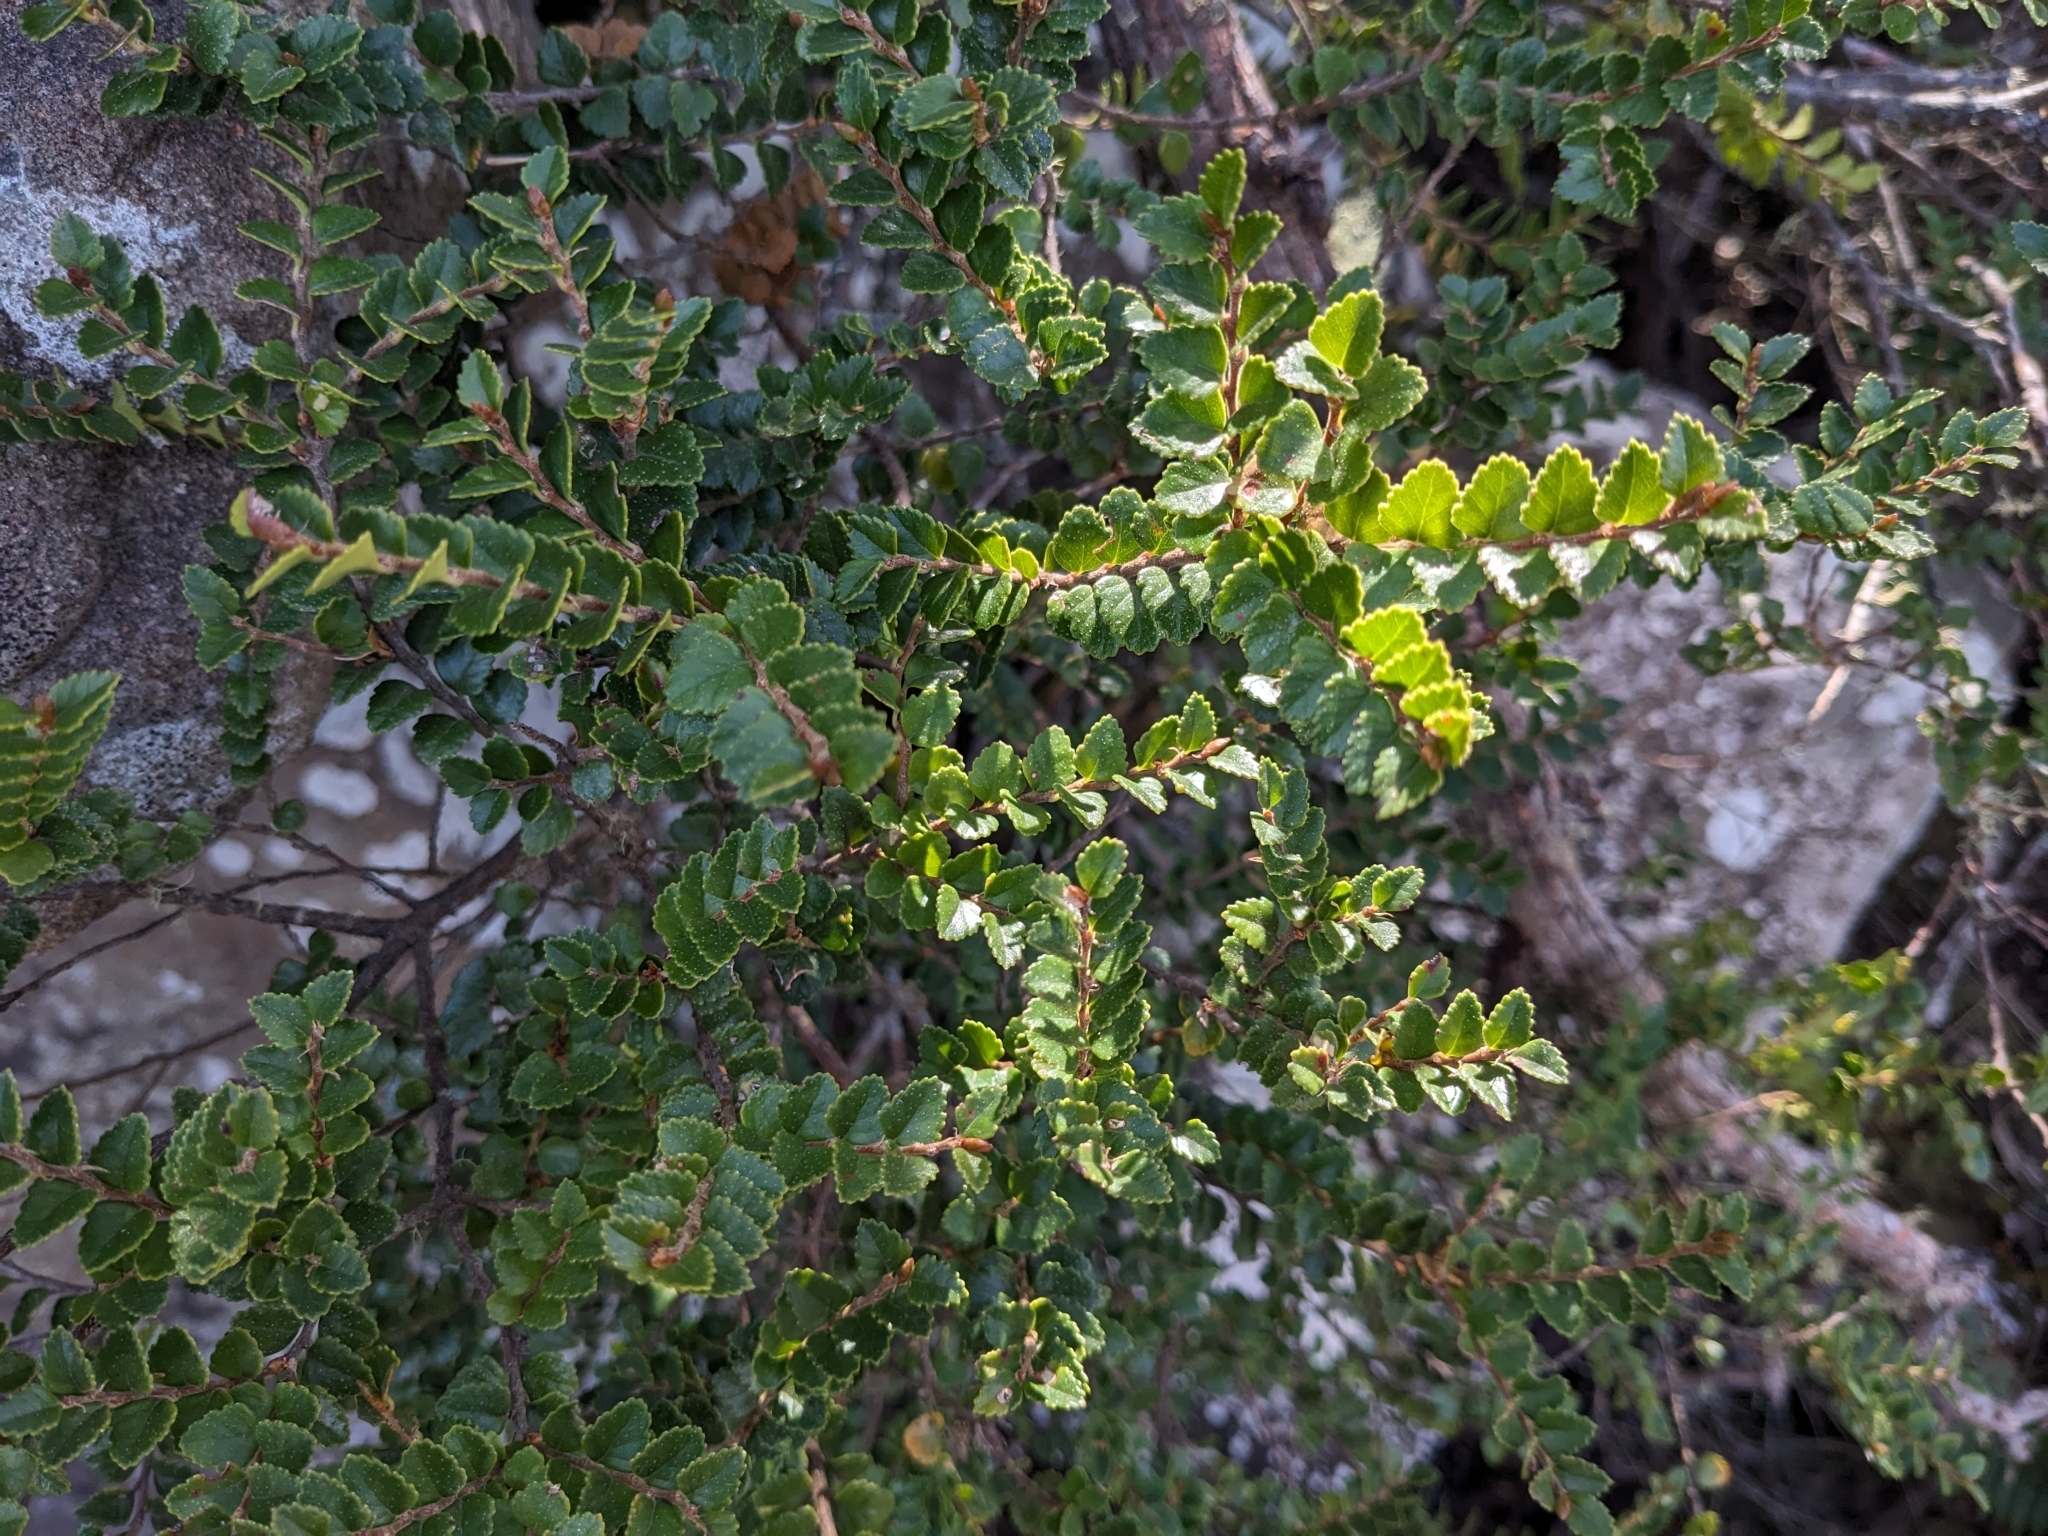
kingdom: Plantae
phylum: Tracheophyta
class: Magnoliopsida
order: Fagales
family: Nothofagaceae
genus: Nothofagus
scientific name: Nothofagus cunninghamii
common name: Myrtle beech
